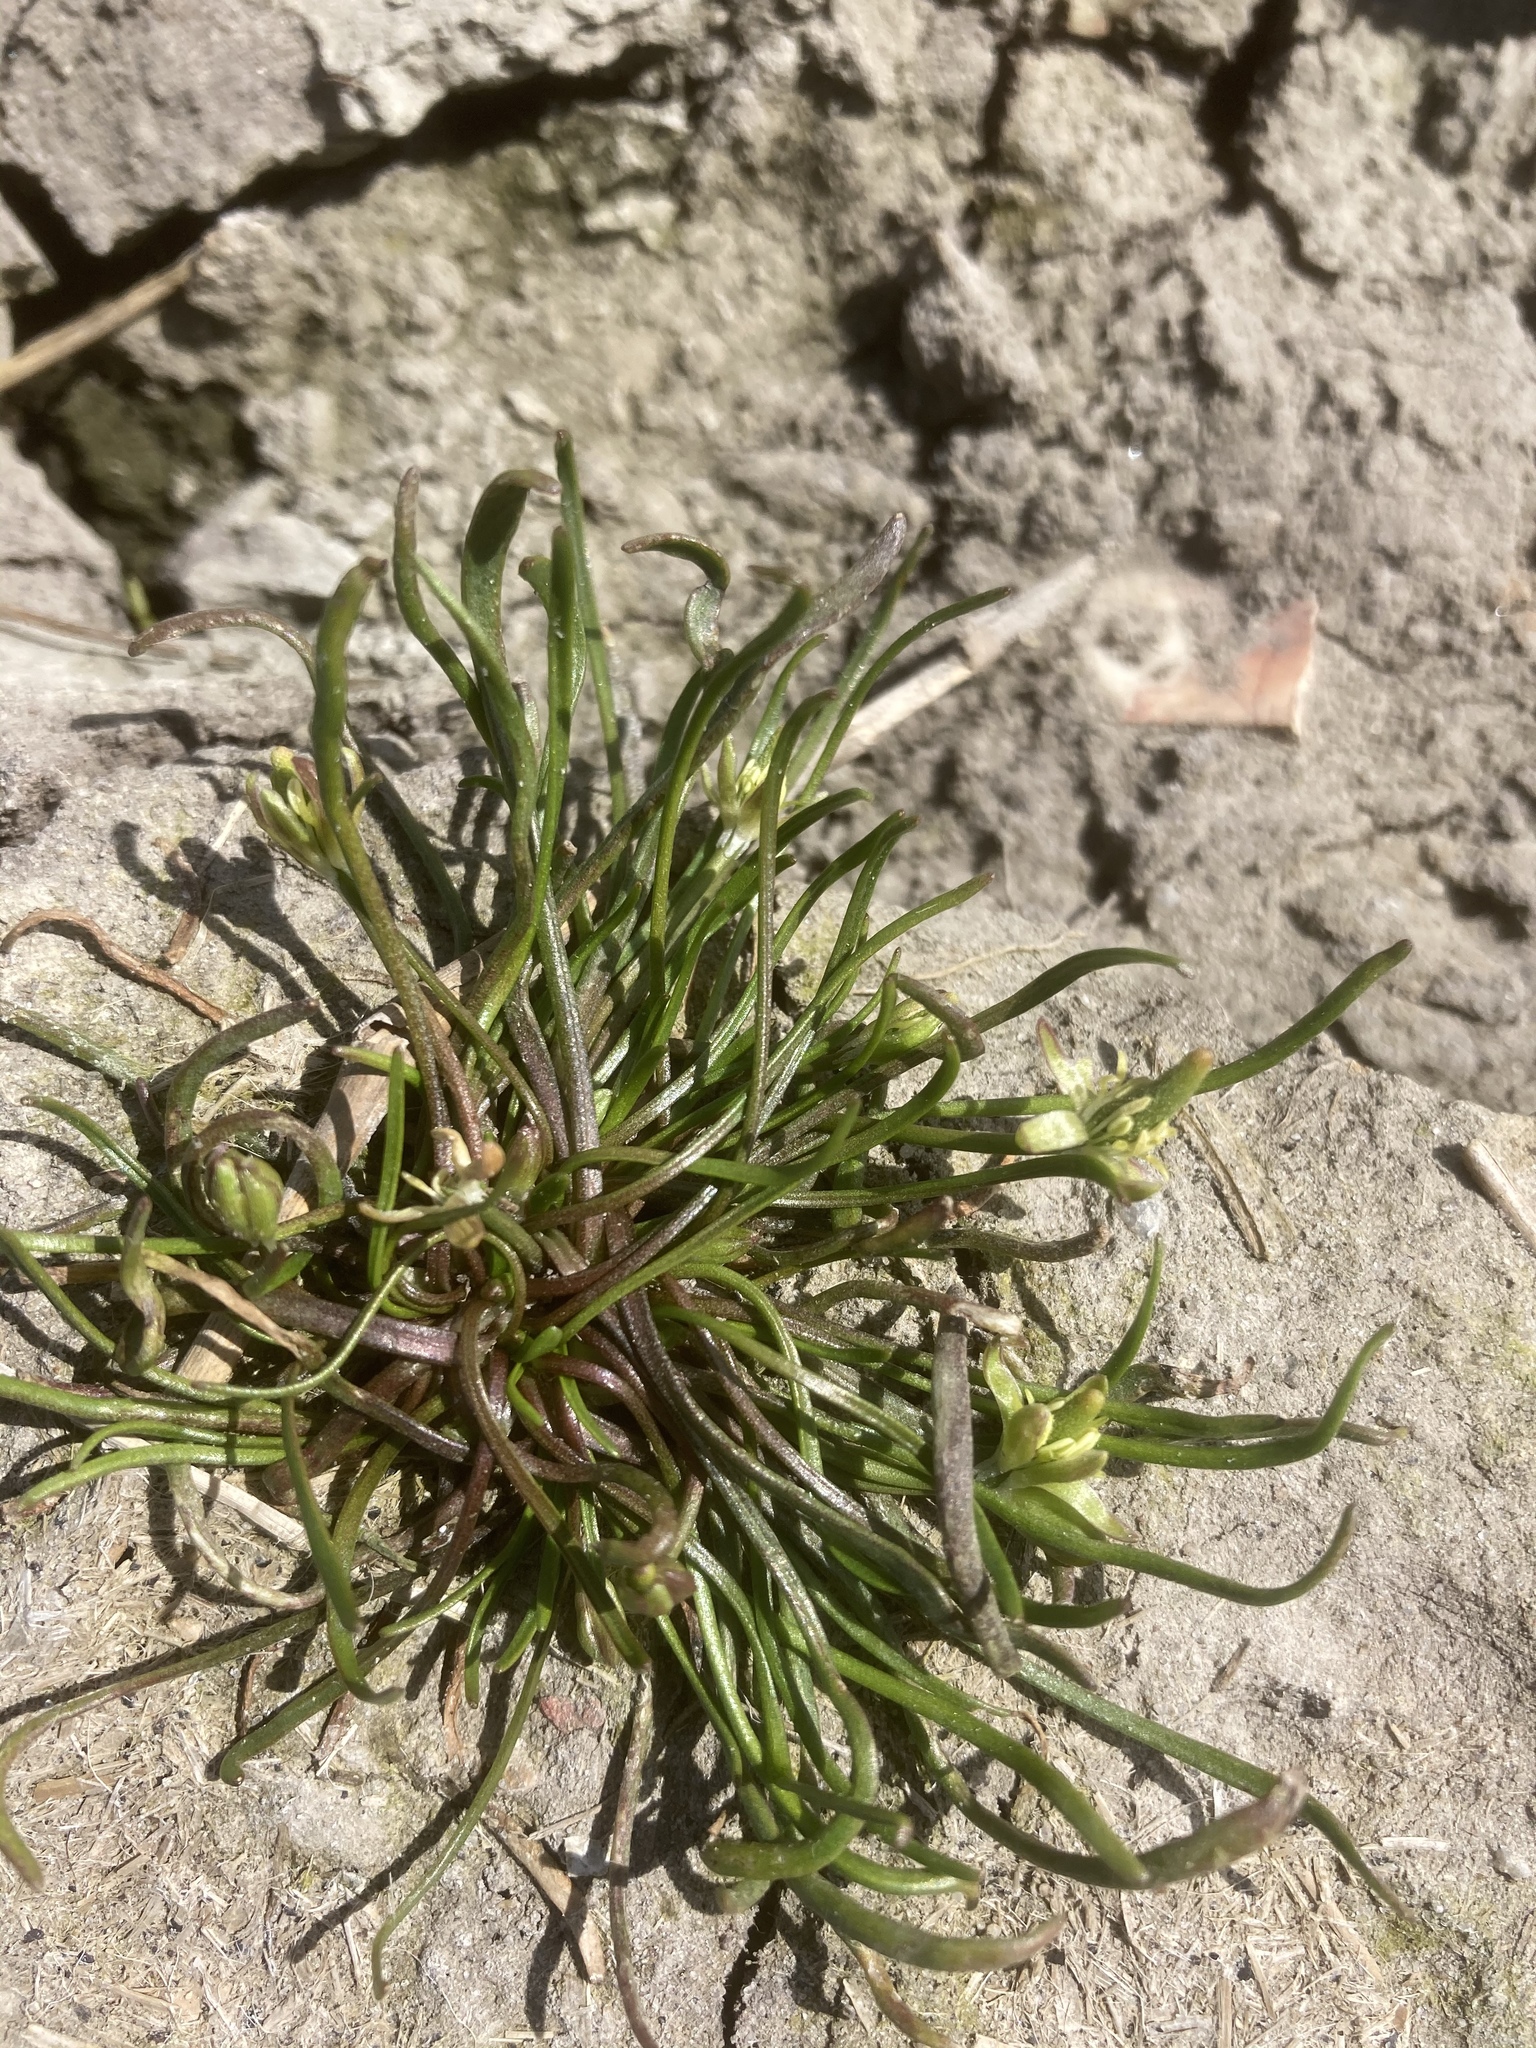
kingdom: Plantae
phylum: Tracheophyta
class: Magnoliopsida
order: Ranunculales
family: Ranunculaceae
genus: Myosurus
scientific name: Myosurus minimus
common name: Mousetail
